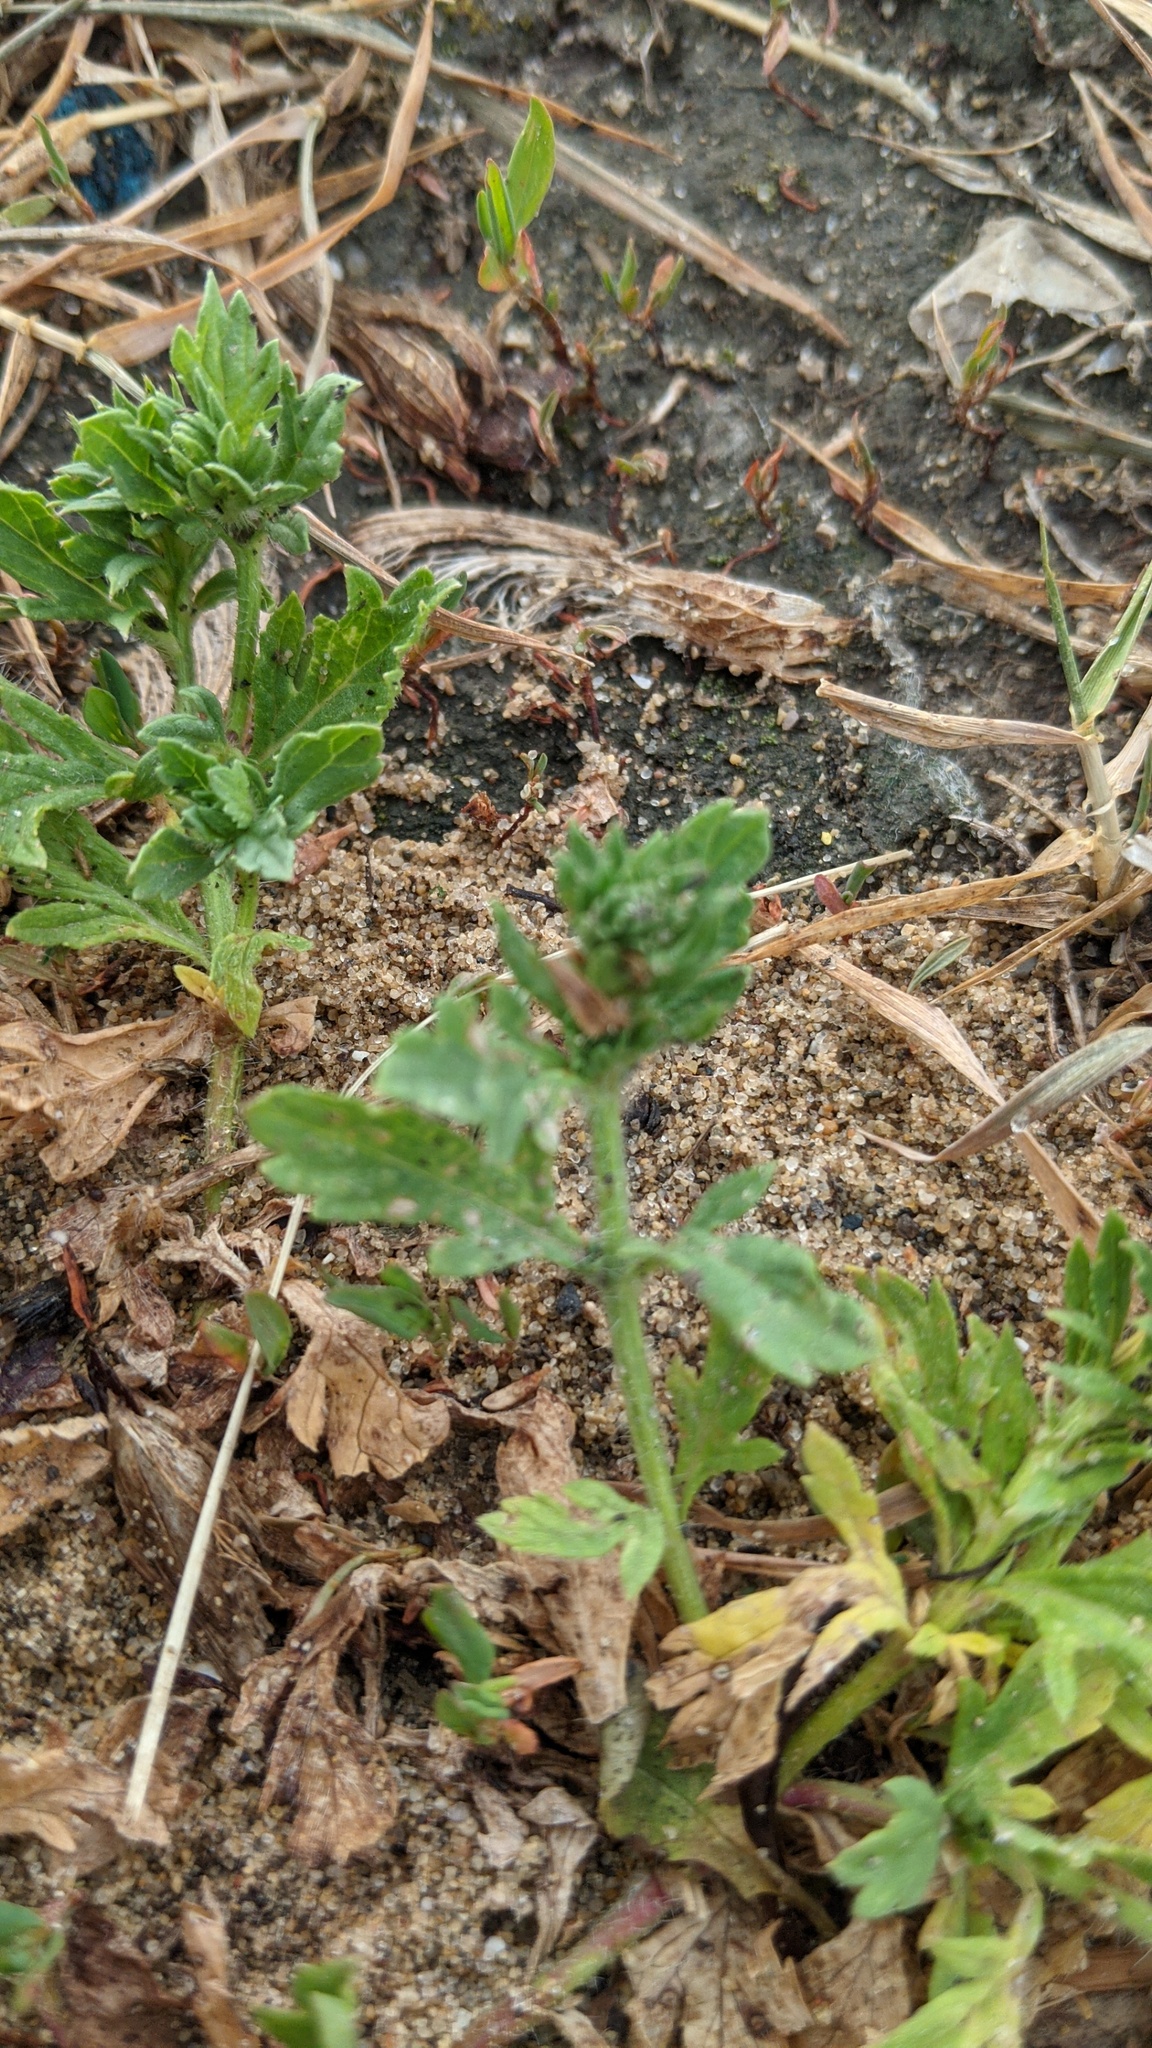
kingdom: Plantae
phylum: Tracheophyta
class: Magnoliopsida
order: Lamiales
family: Verbenaceae
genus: Verbena
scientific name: Verbena bracteata
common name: Bracted vervain
